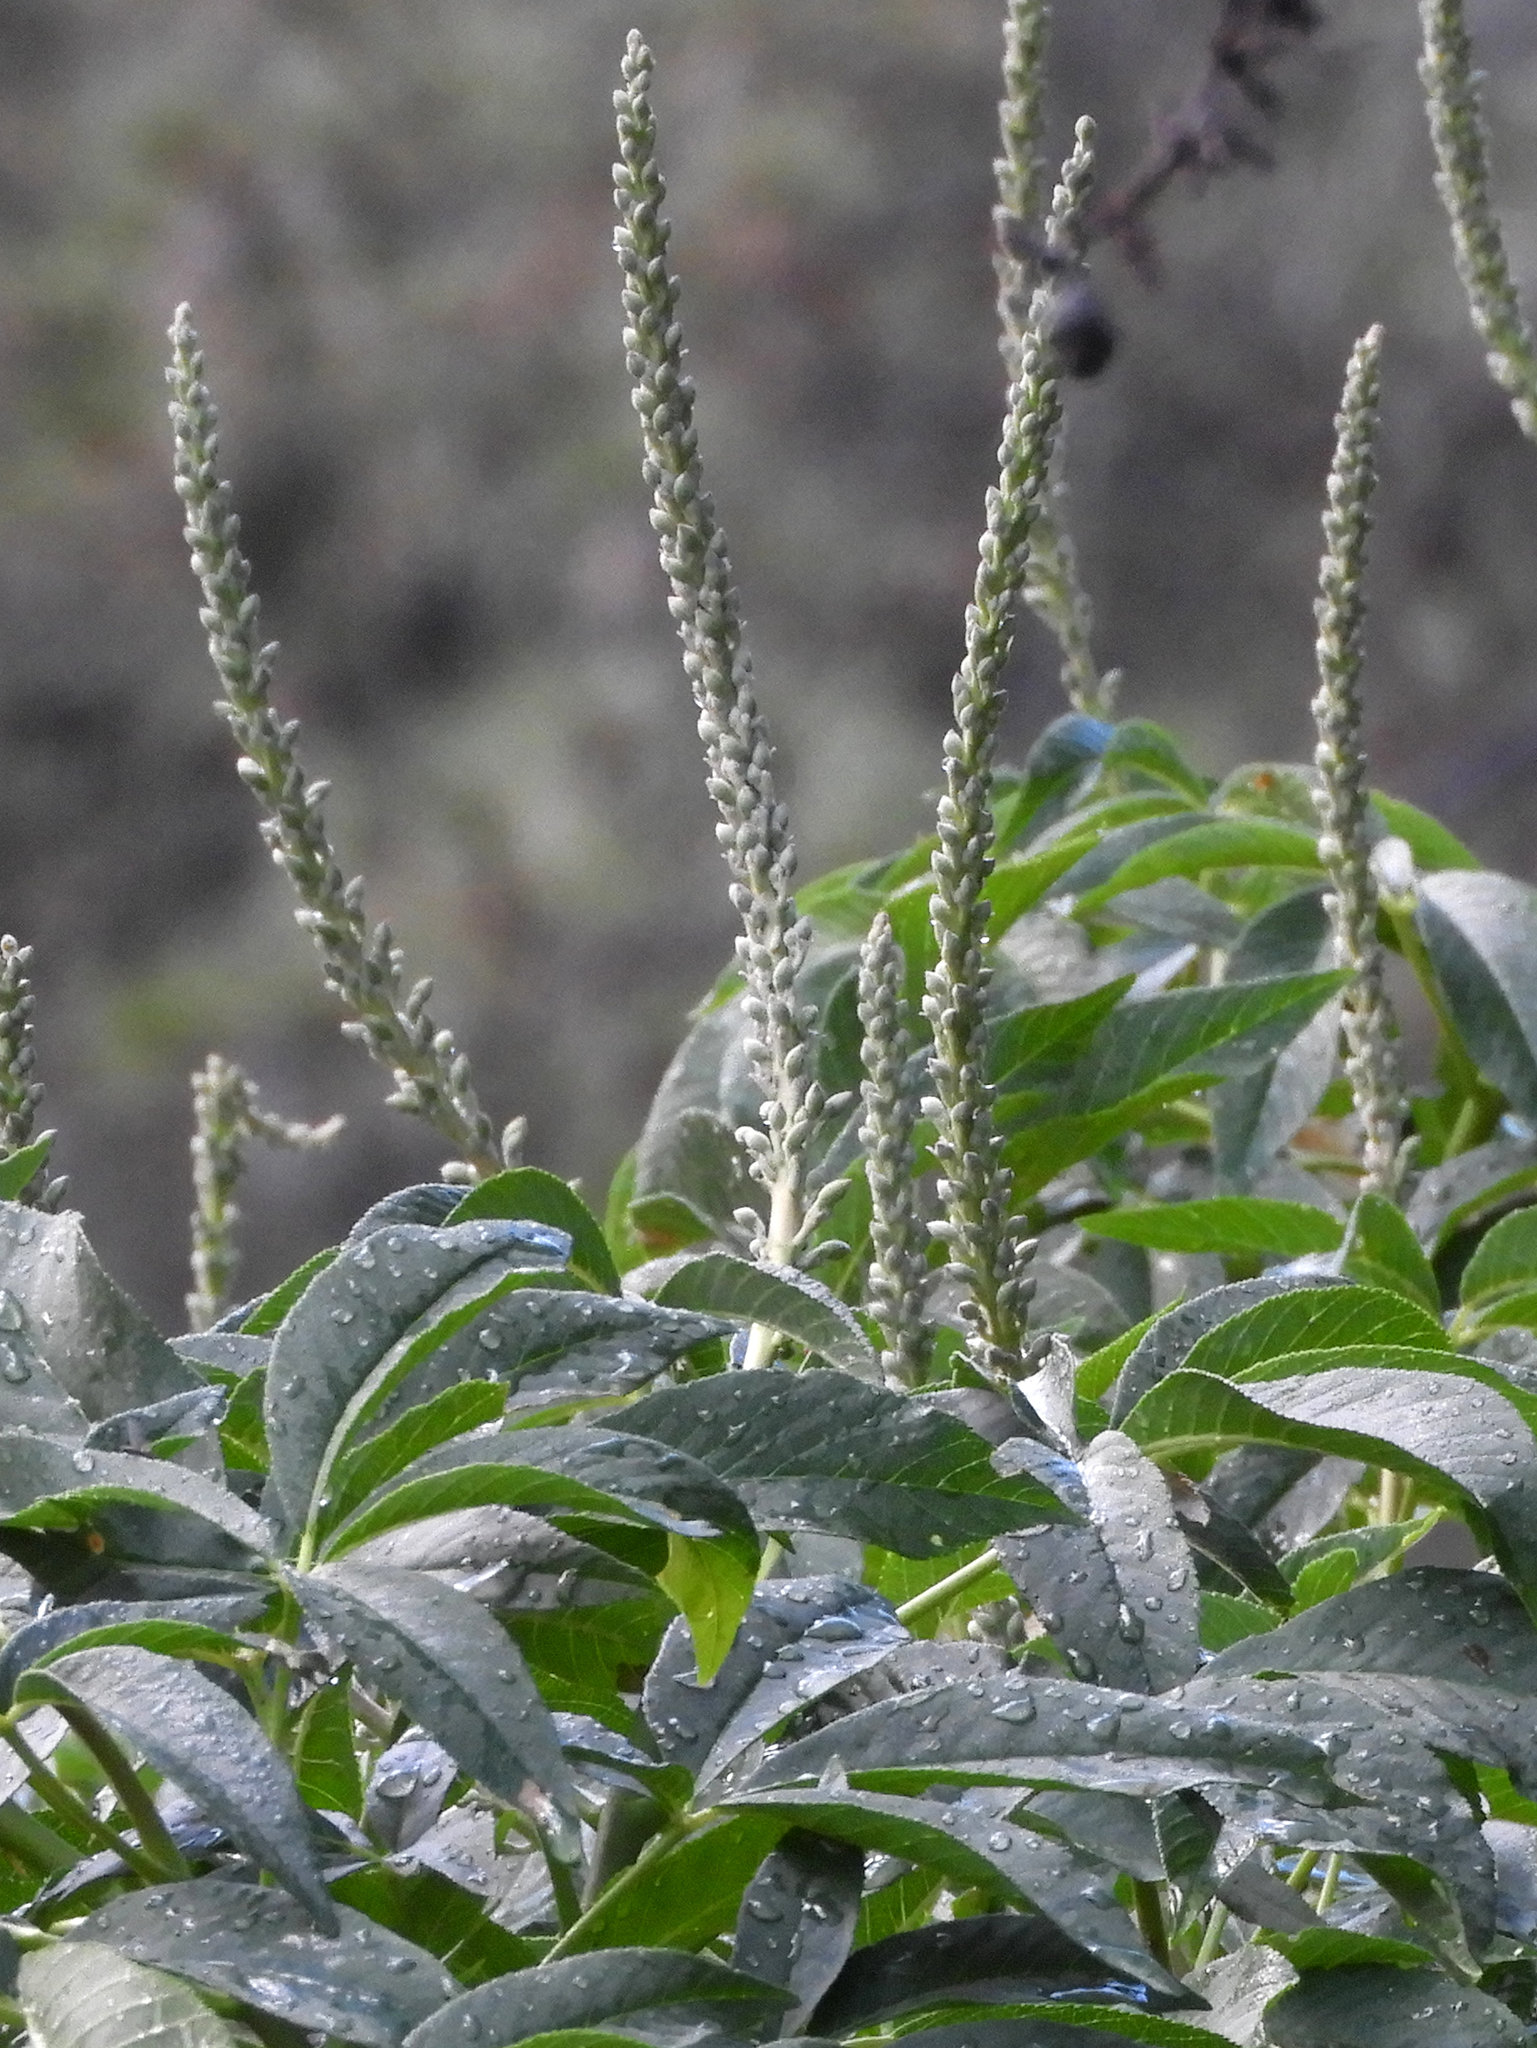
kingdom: Plantae
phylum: Tracheophyta
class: Magnoliopsida
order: Sapindales
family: Sapindaceae
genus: Aesculus
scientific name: Aesculus californica
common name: California buckeye
